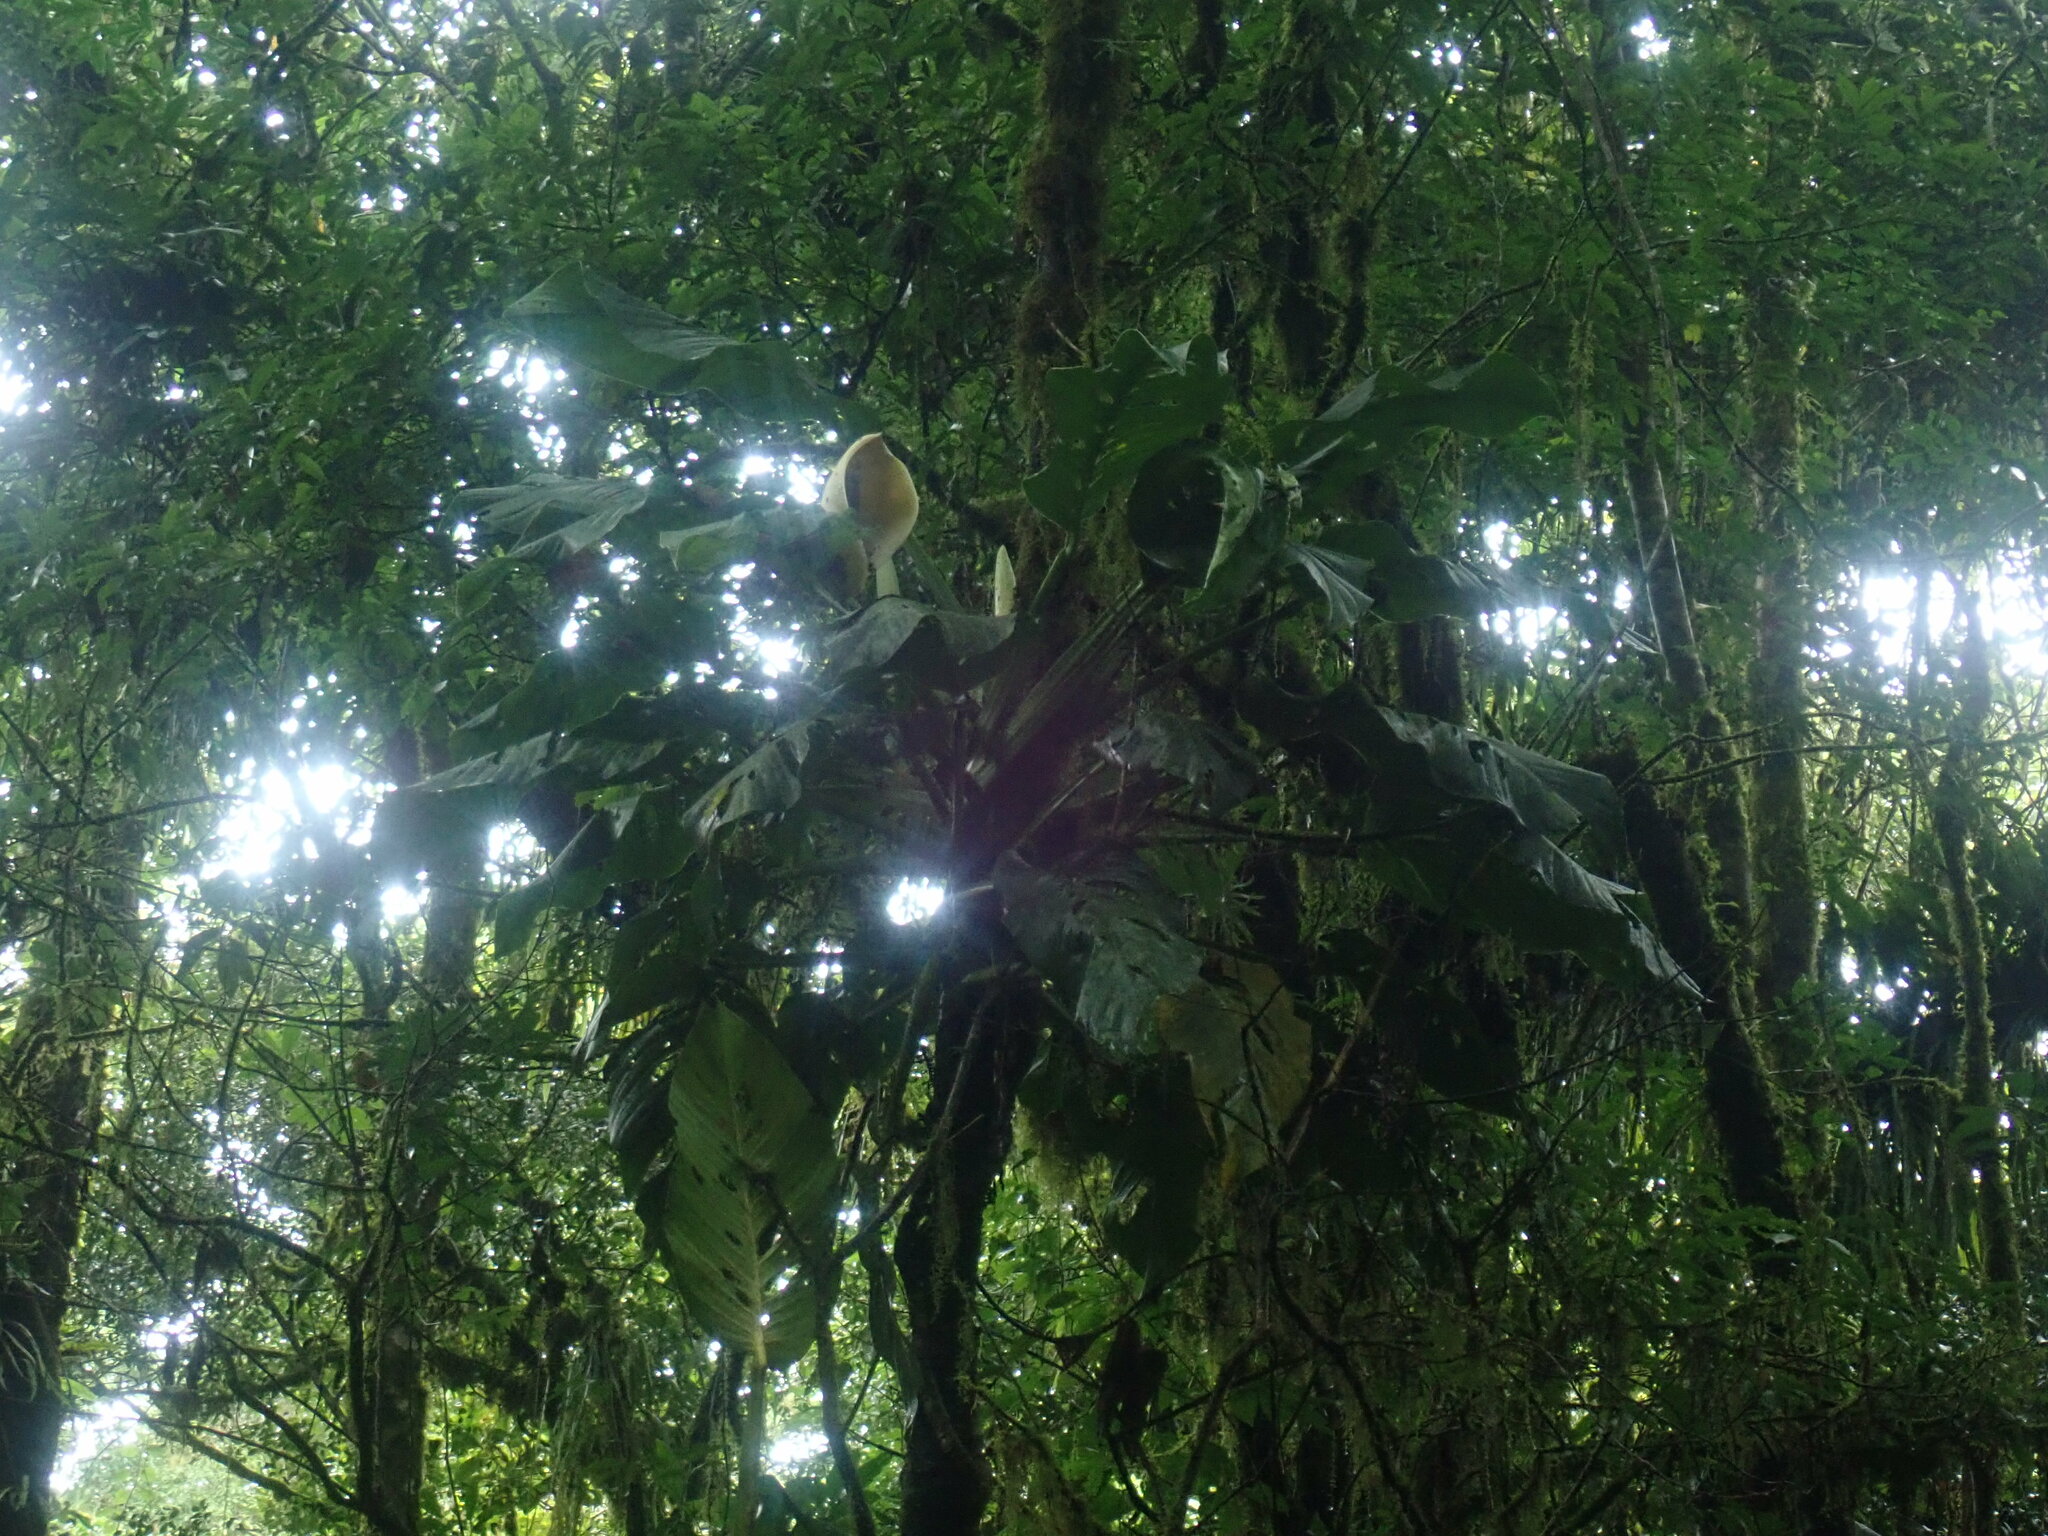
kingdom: Plantae
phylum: Tracheophyta
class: Liliopsida
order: Alismatales
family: Araceae
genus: Monstera
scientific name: Monstera egregia
